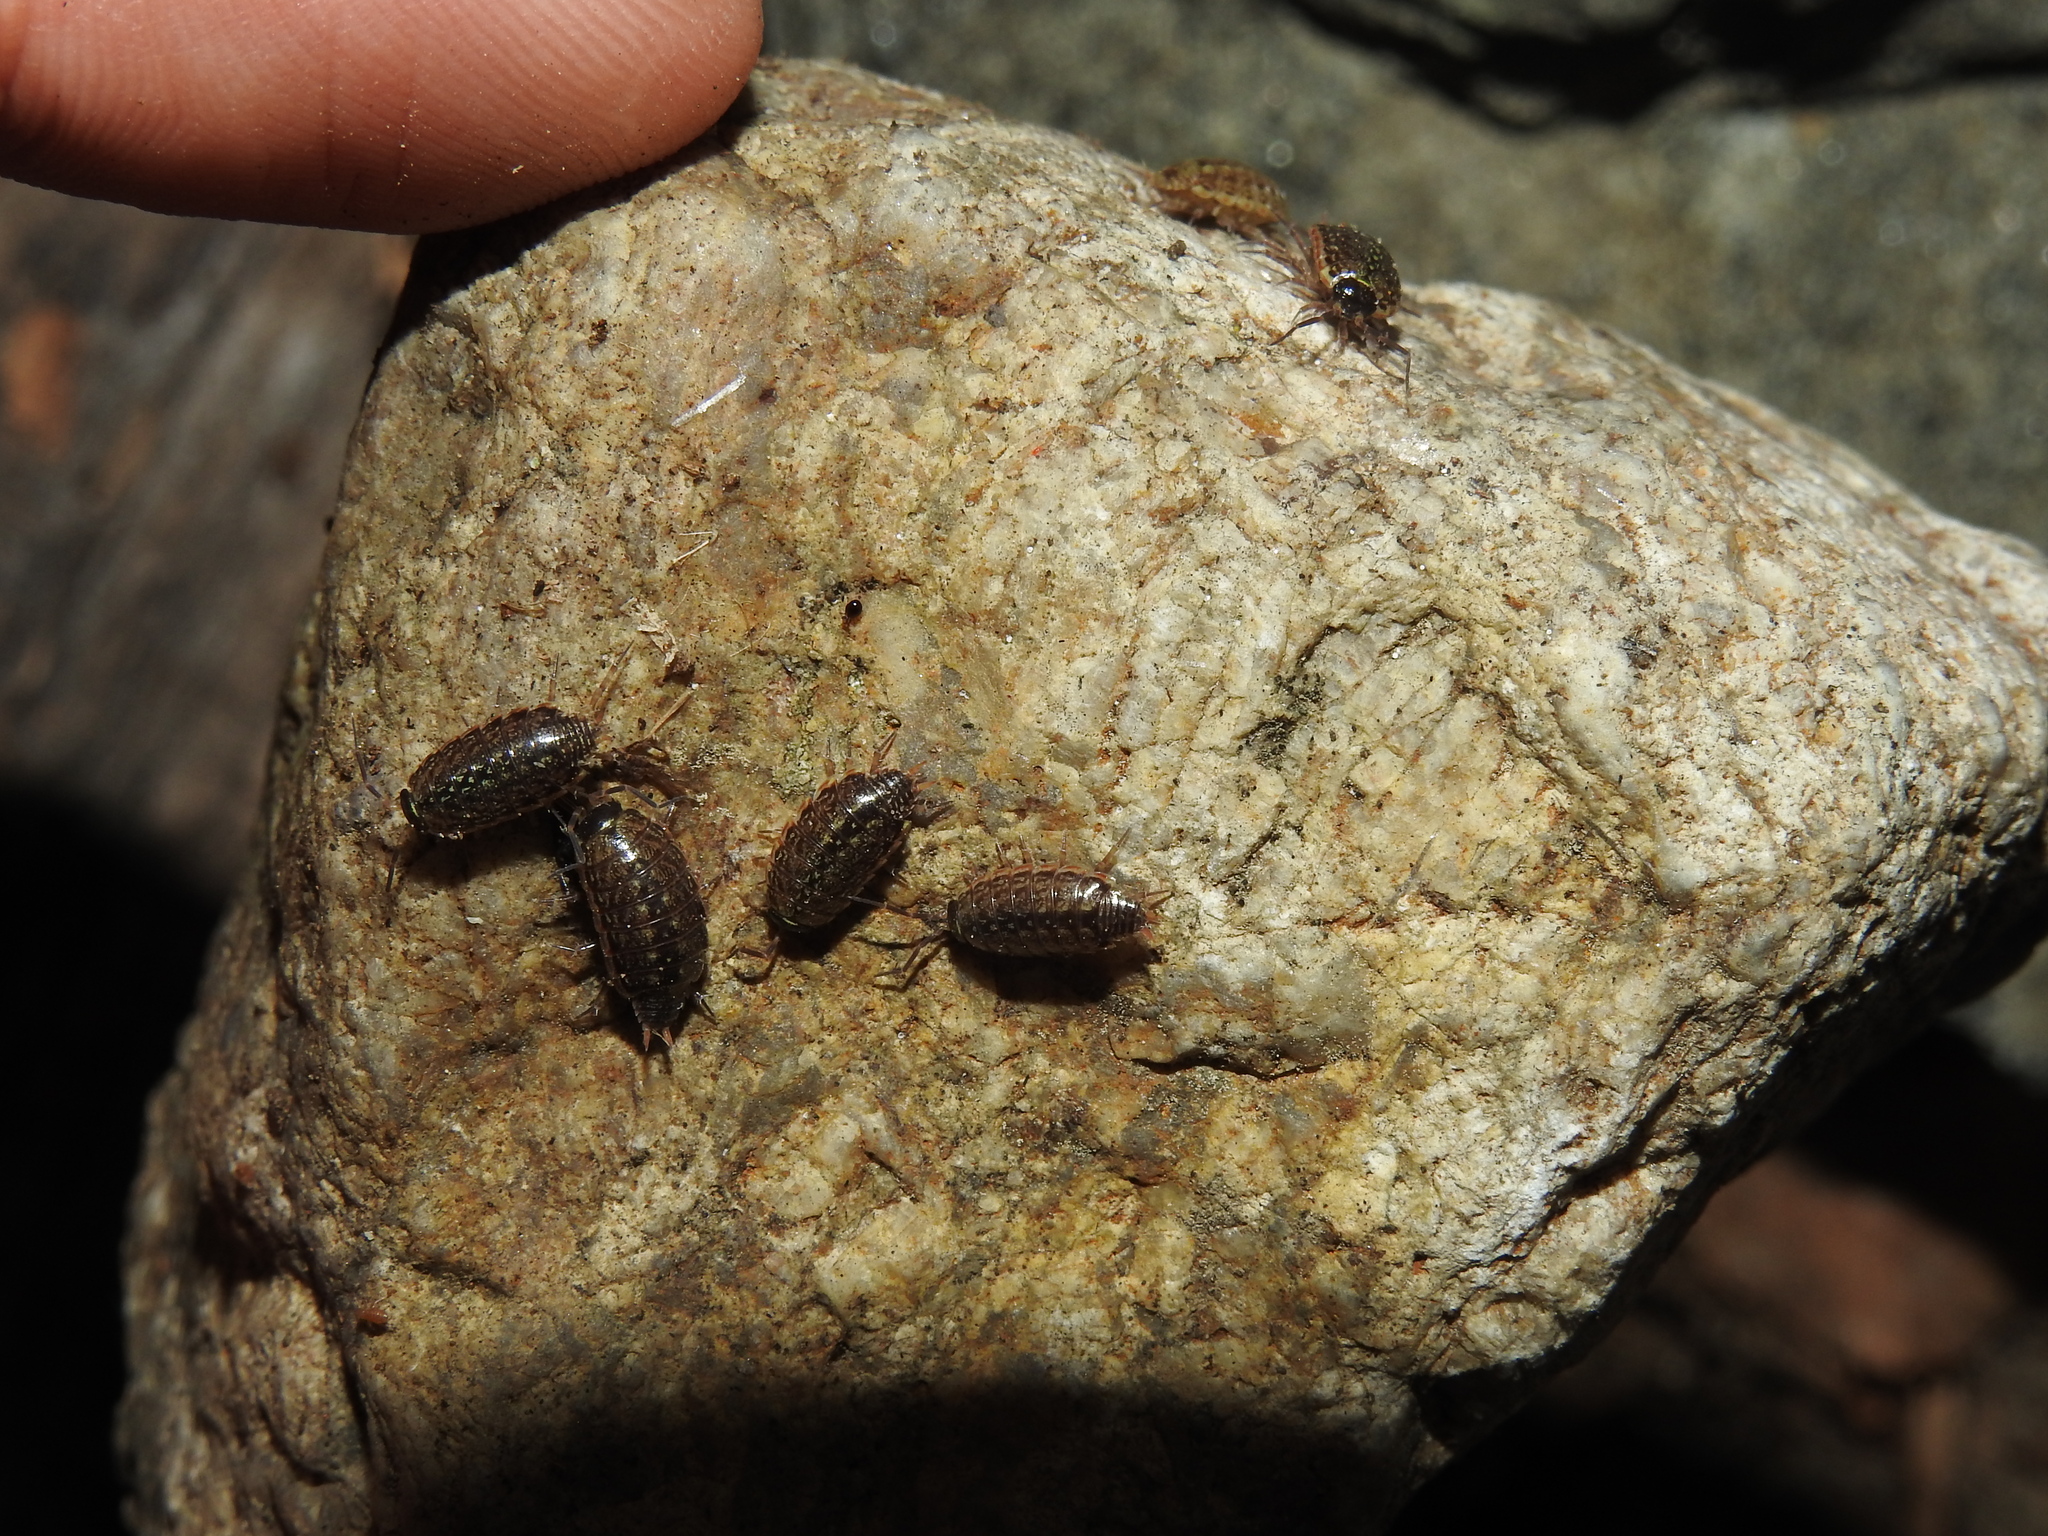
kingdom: Animalia
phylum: Arthropoda
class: Malacostraca
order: Isopoda
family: Philosciidae
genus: Philoscia
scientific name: Philoscia muscorum
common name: Common striped woodlouse
